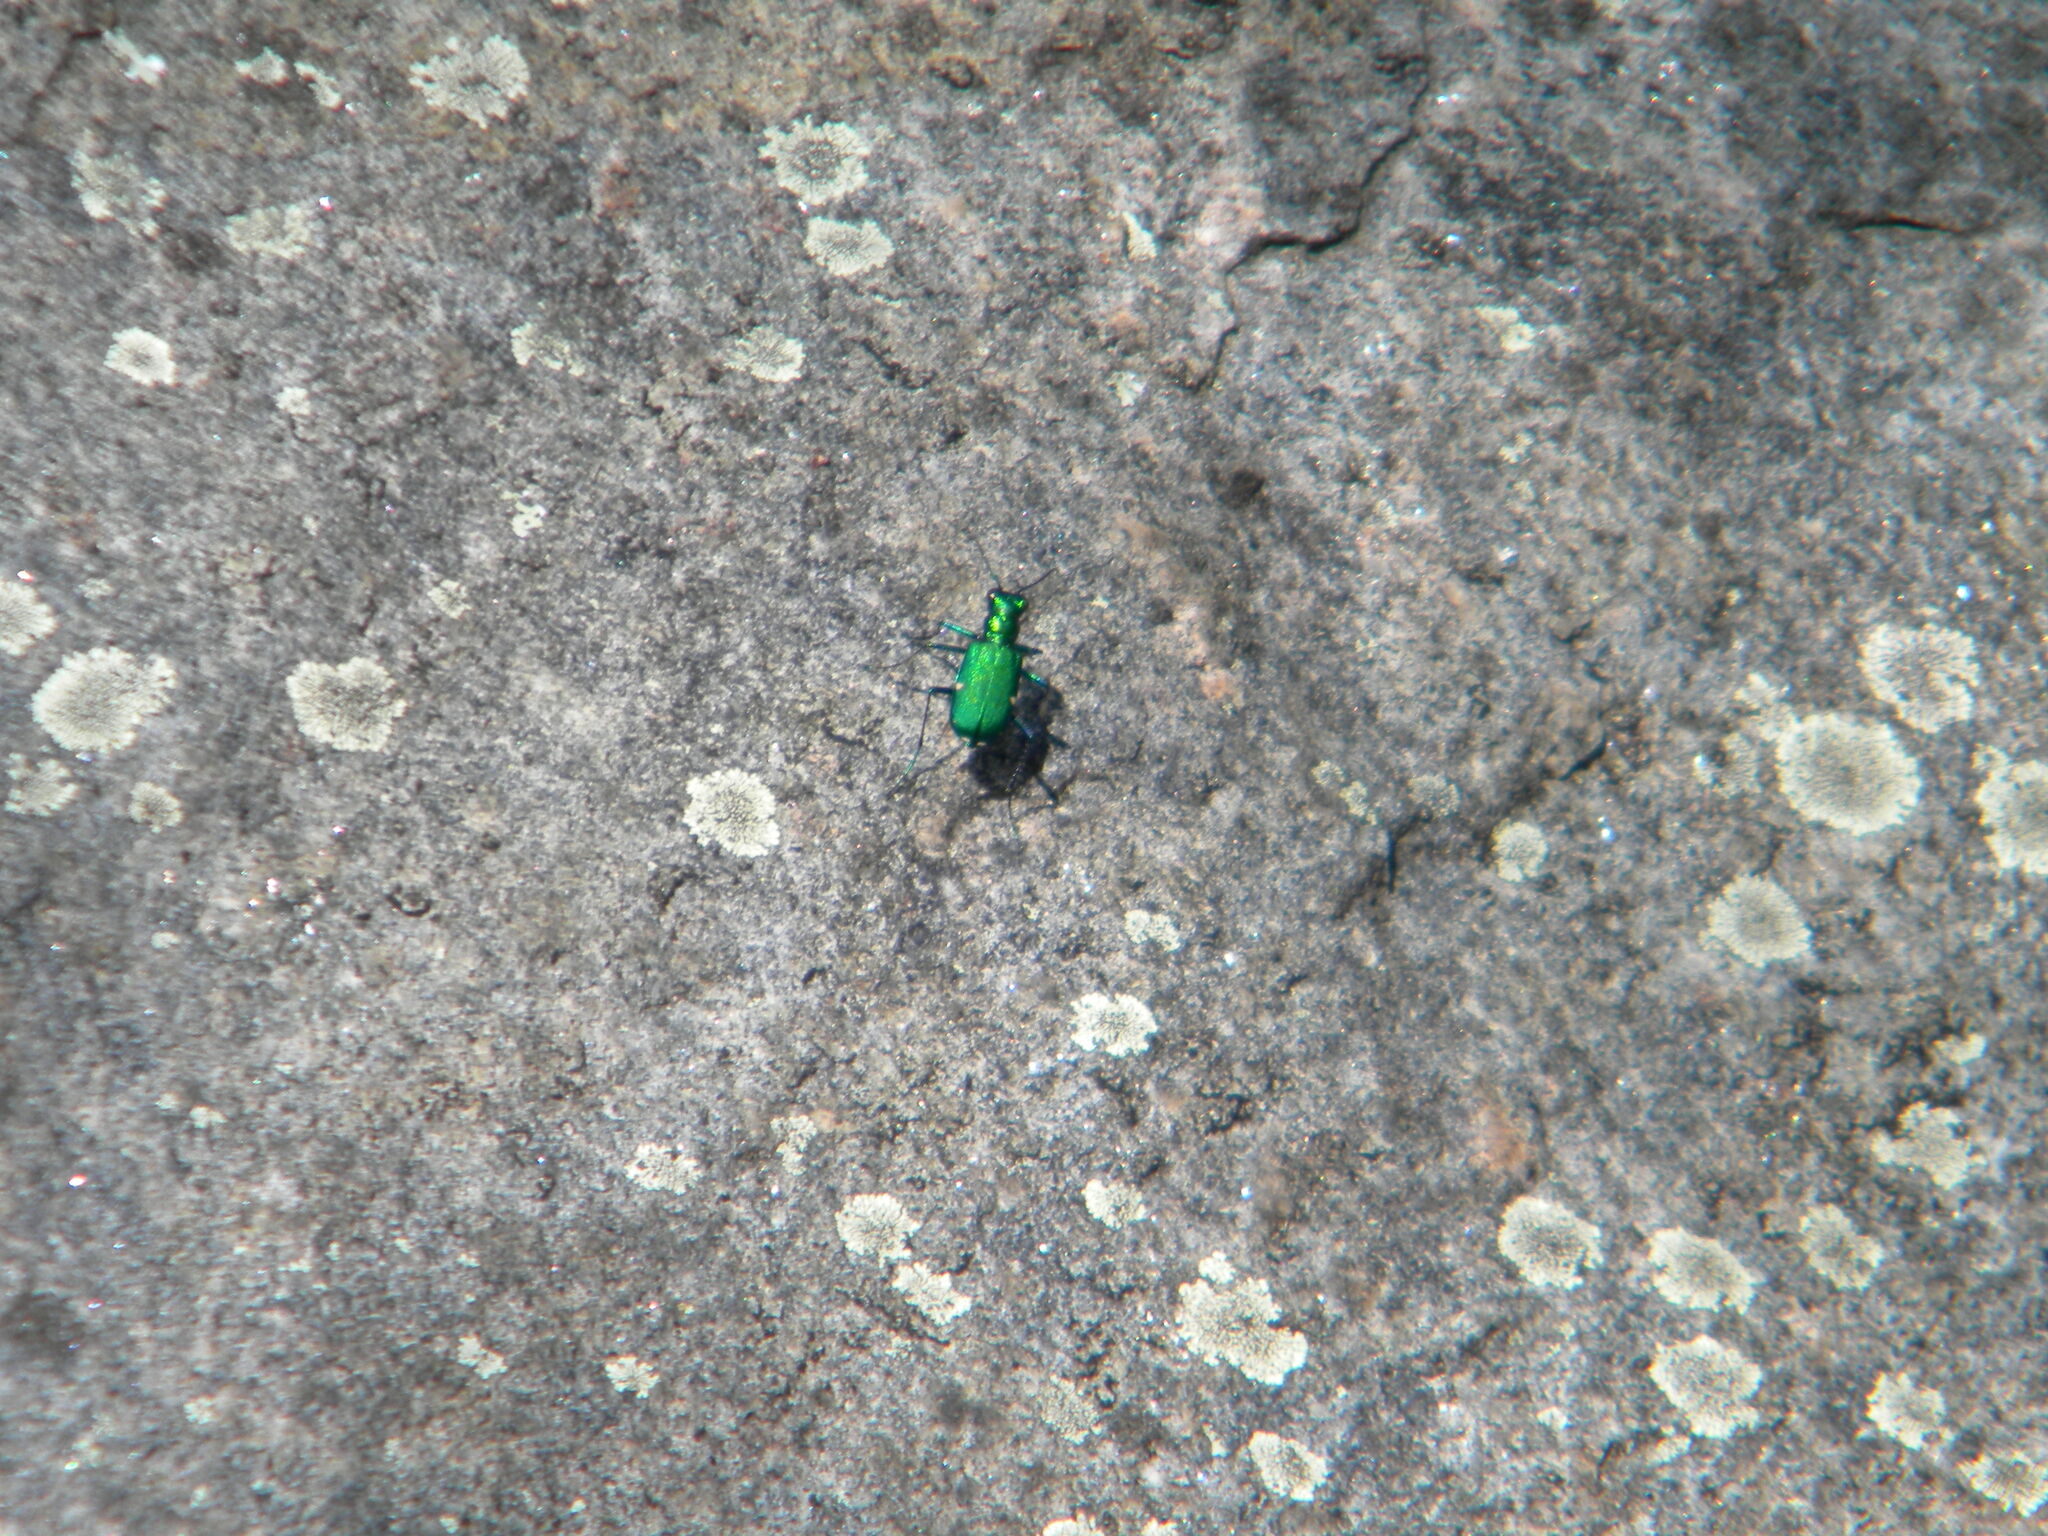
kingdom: Animalia
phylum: Arthropoda
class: Insecta
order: Coleoptera
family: Carabidae
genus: Cicindela
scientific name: Cicindela sexguttata
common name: Six-spotted tiger beetle
